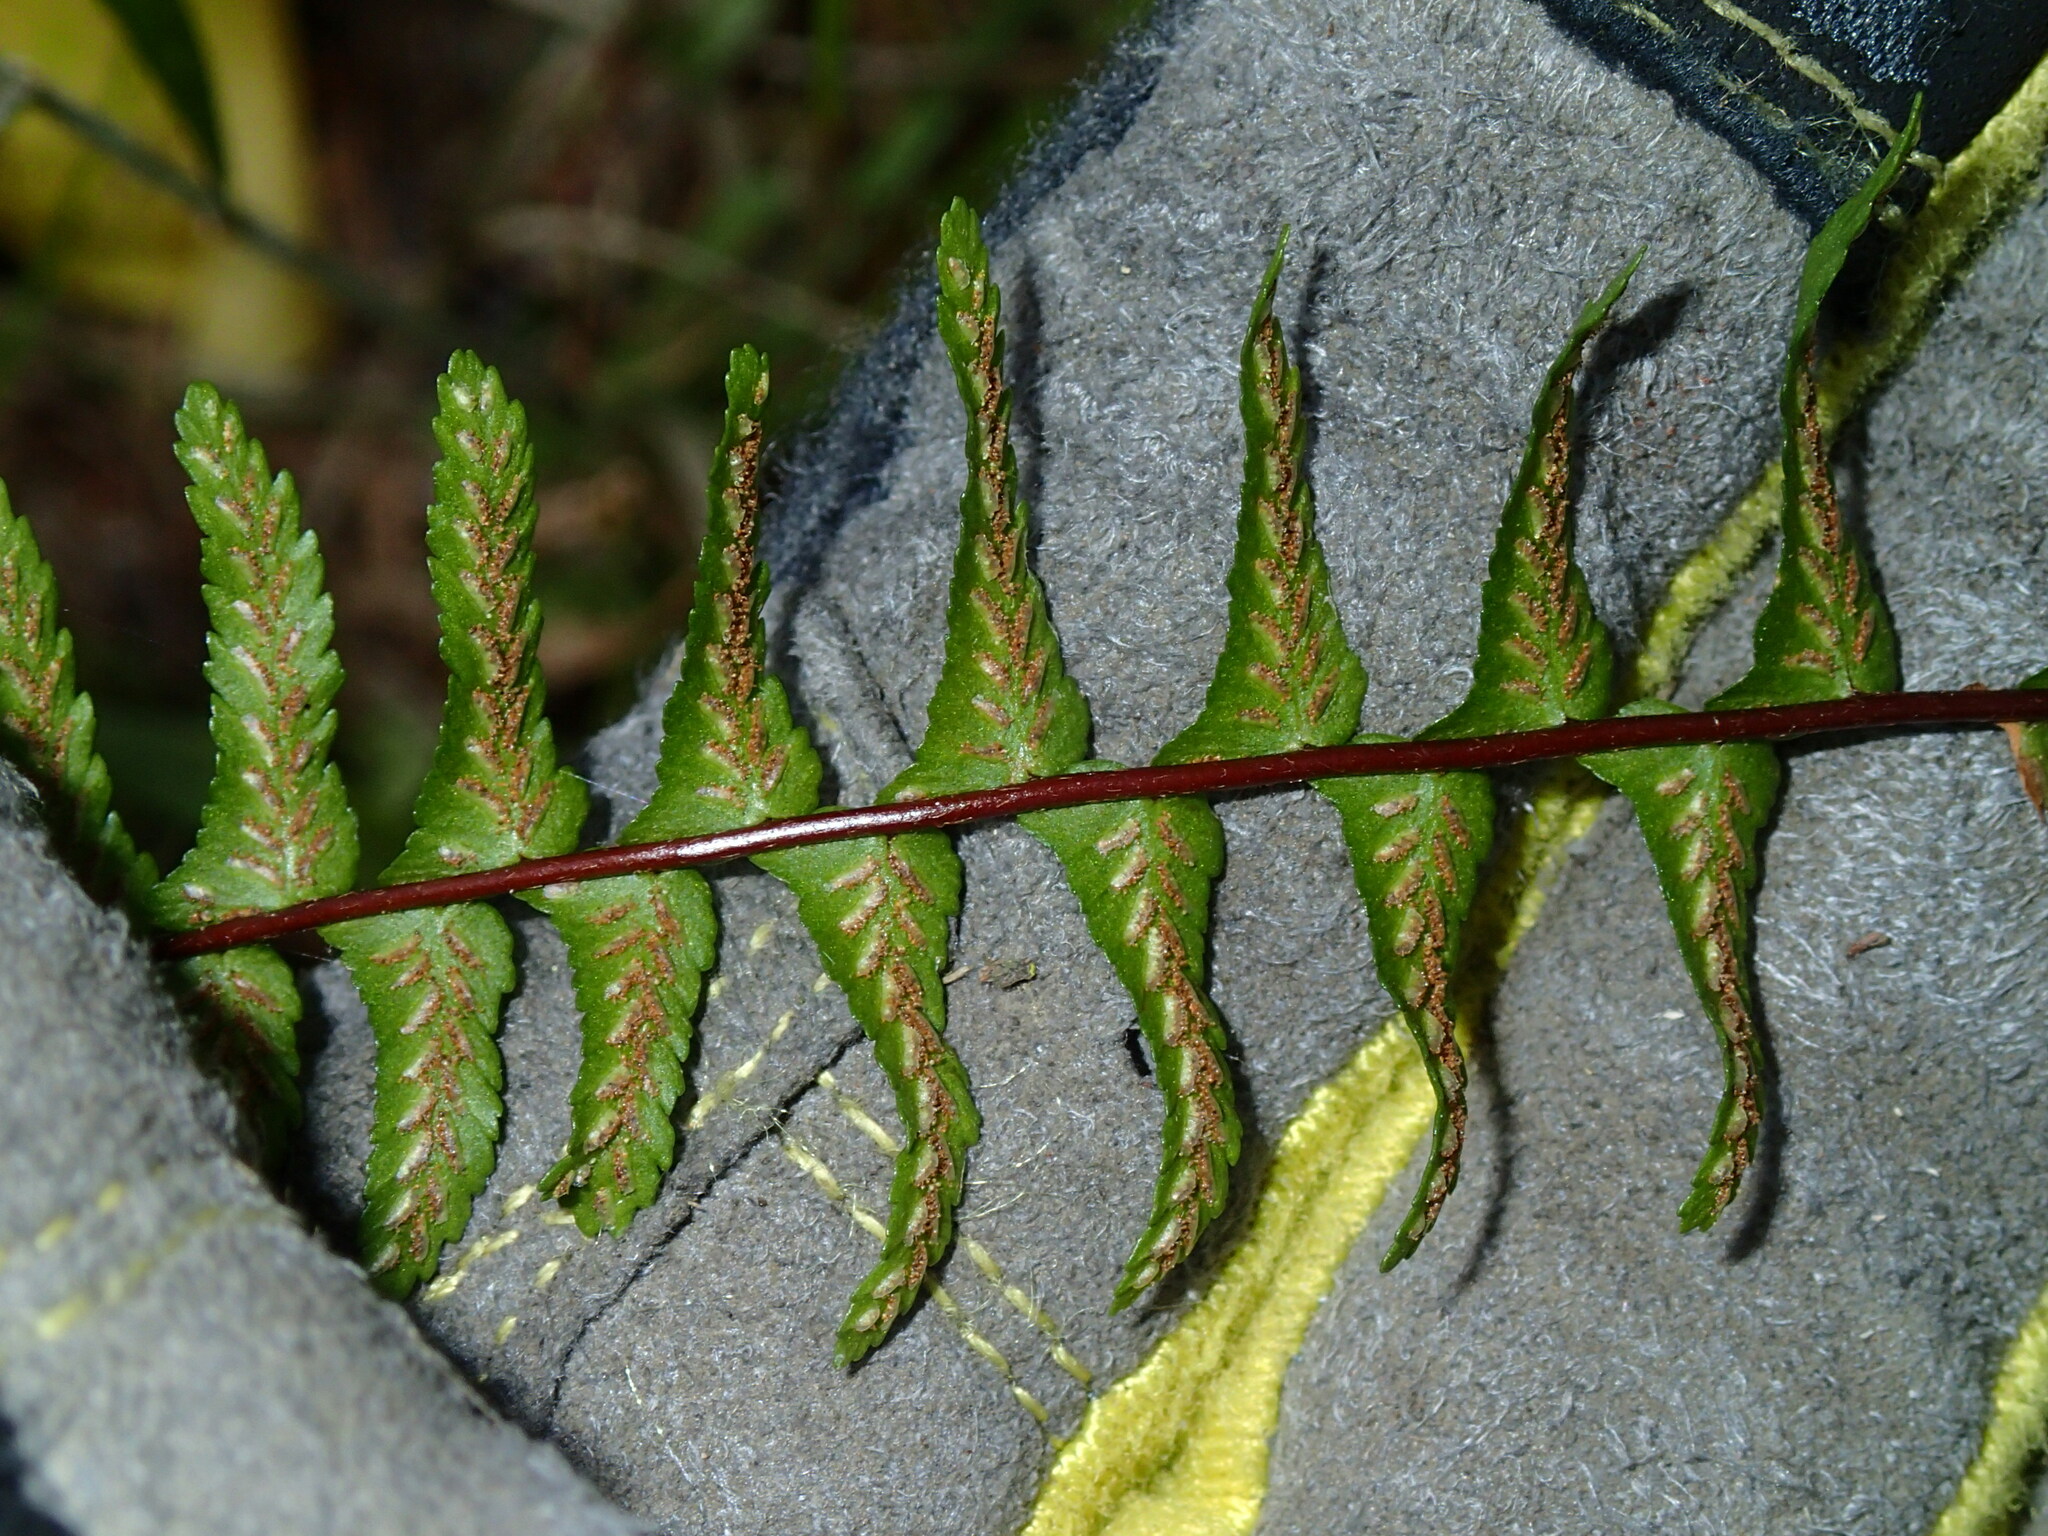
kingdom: Plantae
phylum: Tracheophyta
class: Polypodiopsida
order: Polypodiales
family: Aspleniaceae
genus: Asplenium
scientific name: Asplenium platyneuron
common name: Ebony spleenwort
